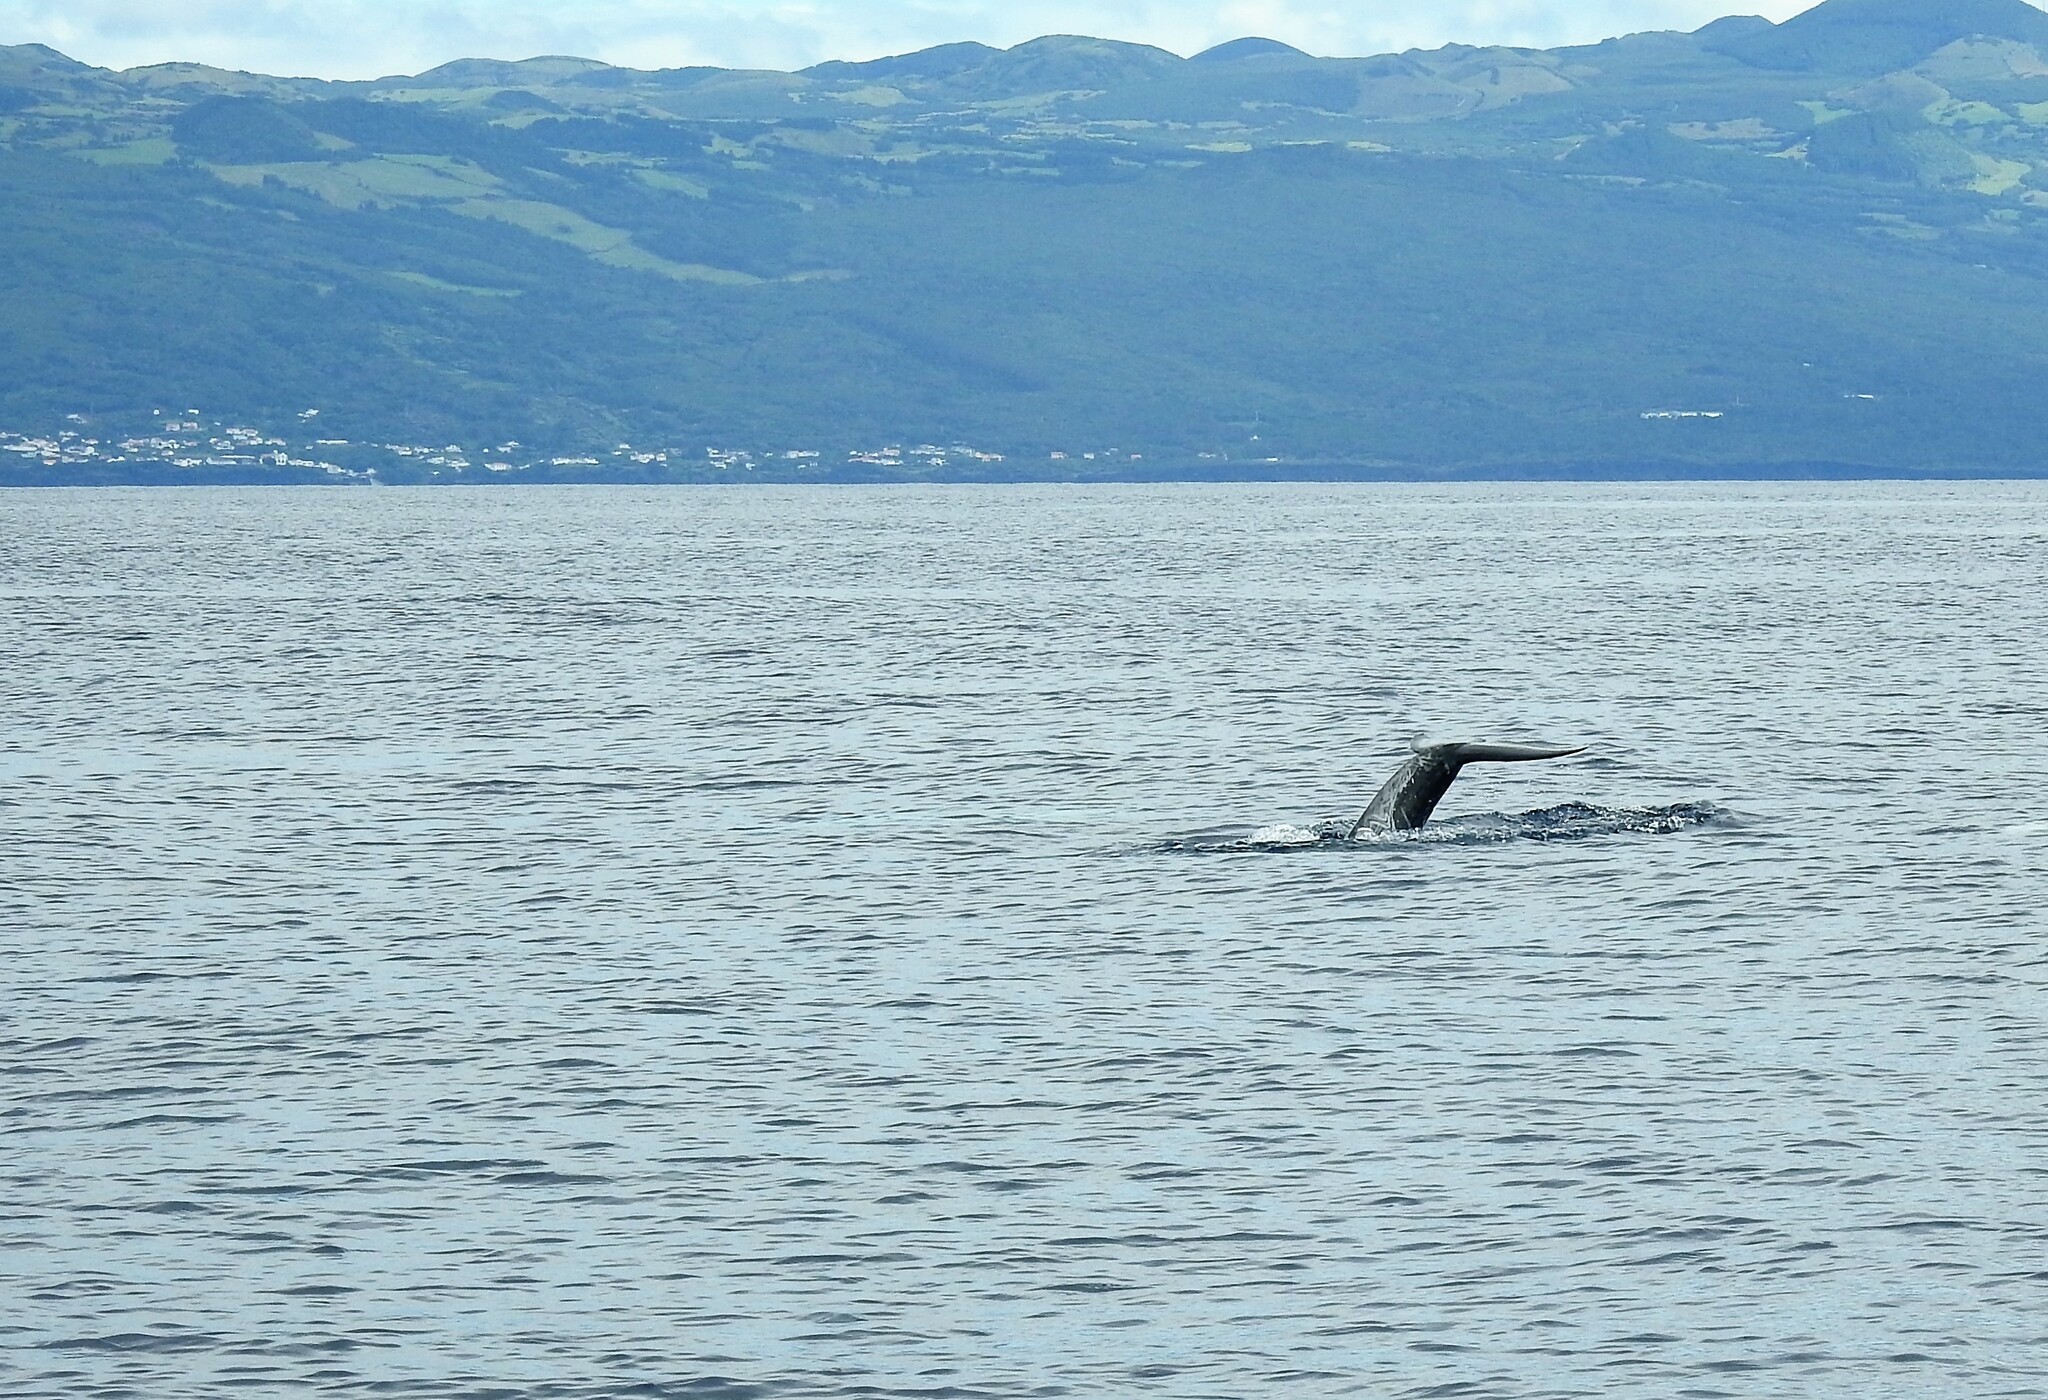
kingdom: Animalia
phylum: Chordata
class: Mammalia
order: Cetacea
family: Delphinidae
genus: Grampus
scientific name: Grampus griseus
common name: Risso's dolphin
